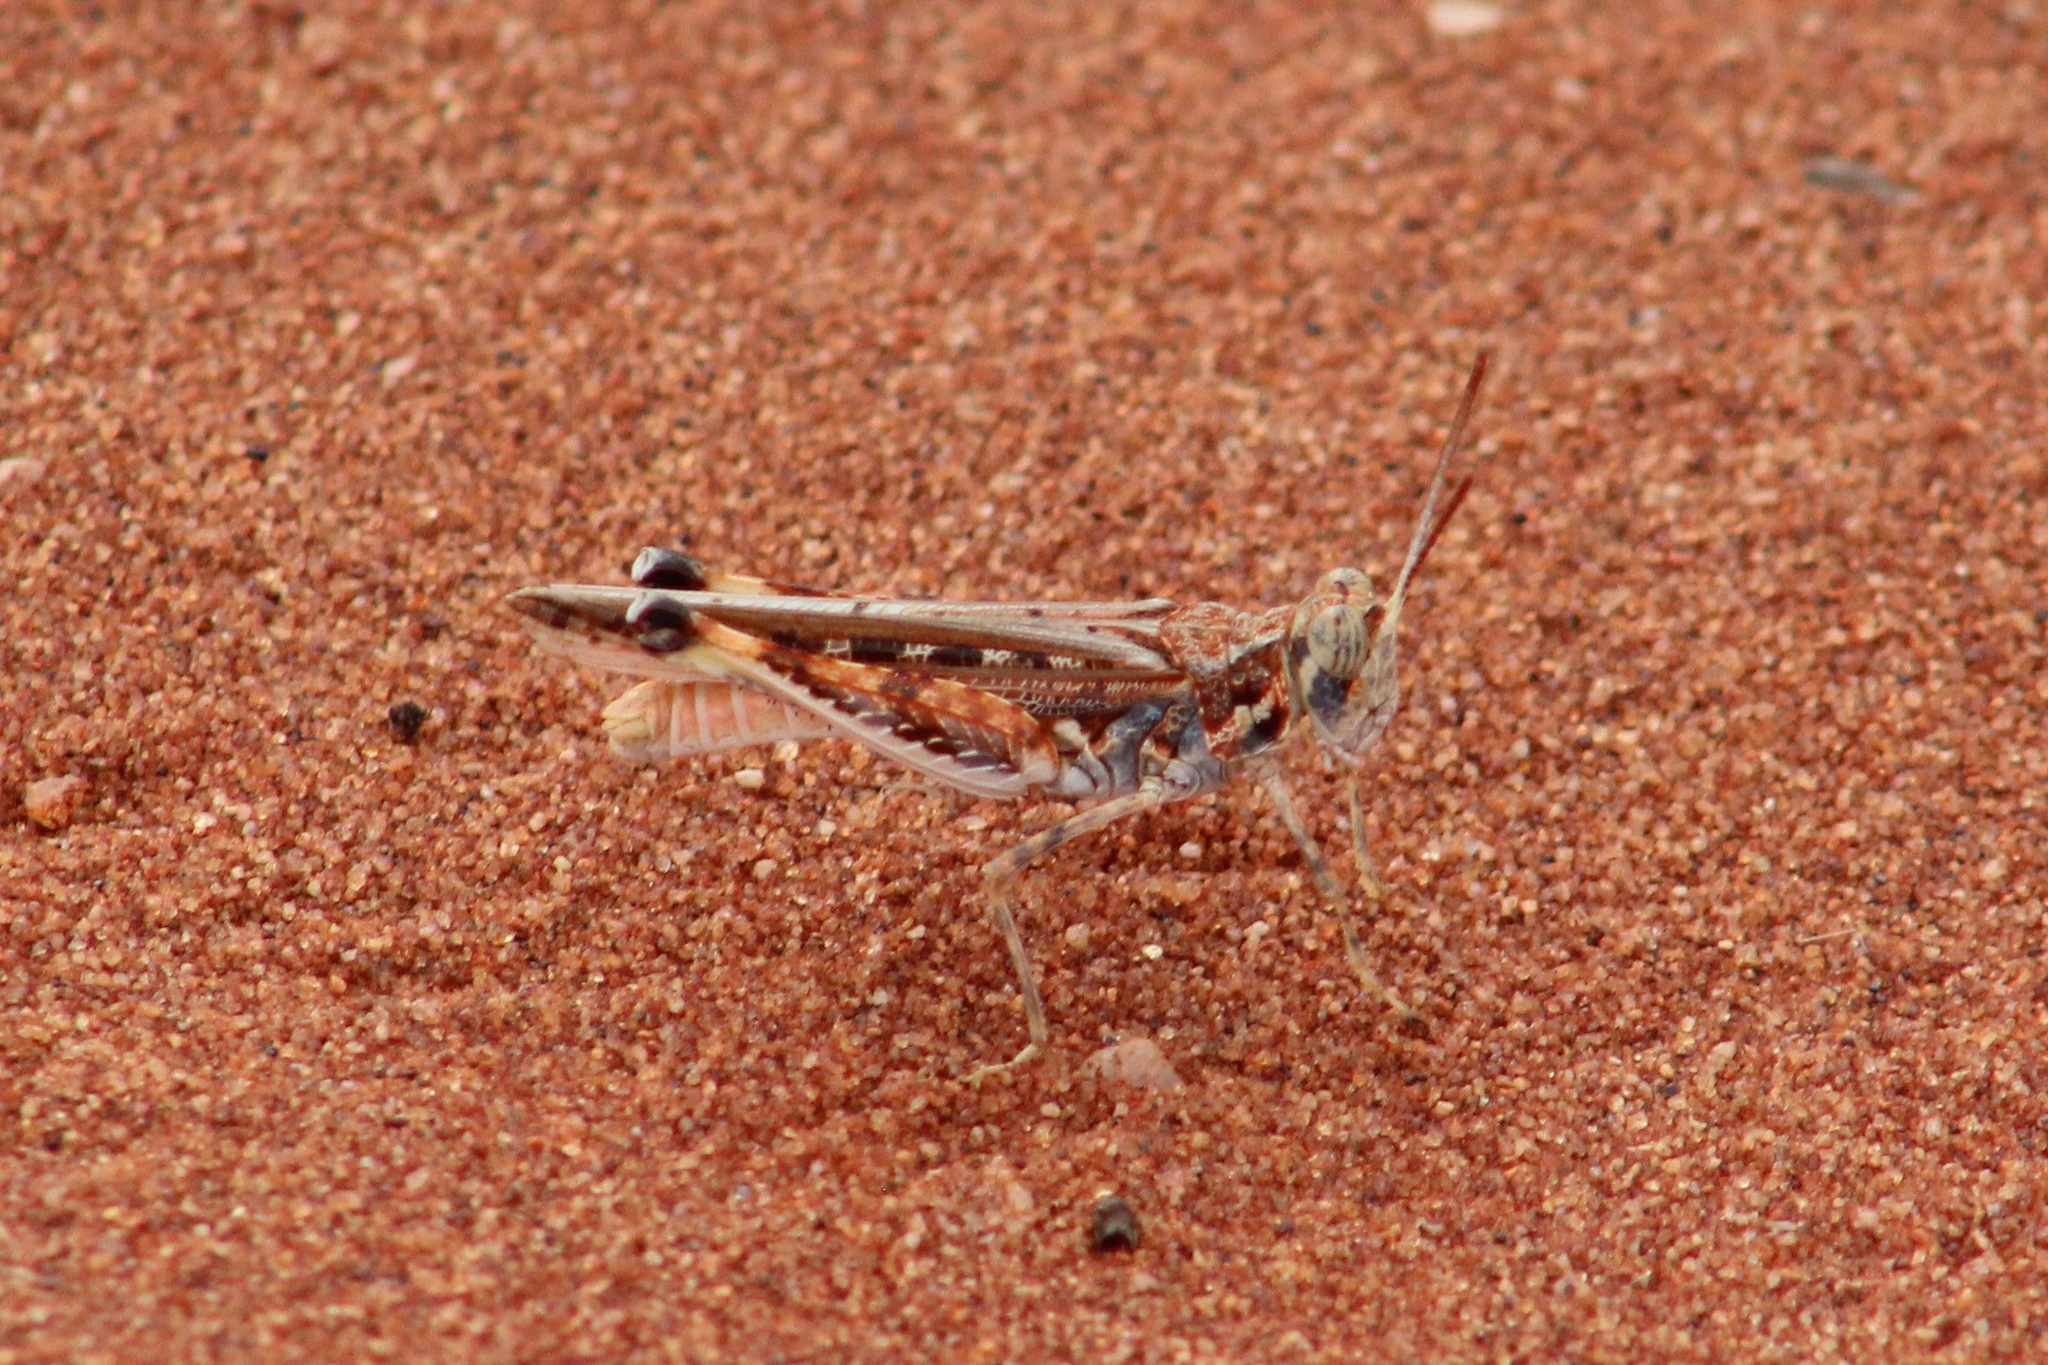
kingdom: Animalia
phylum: Arthropoda
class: Insecta
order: Orthoptera
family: Acrididae
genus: Urnisa
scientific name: Urnisa guttulosa
